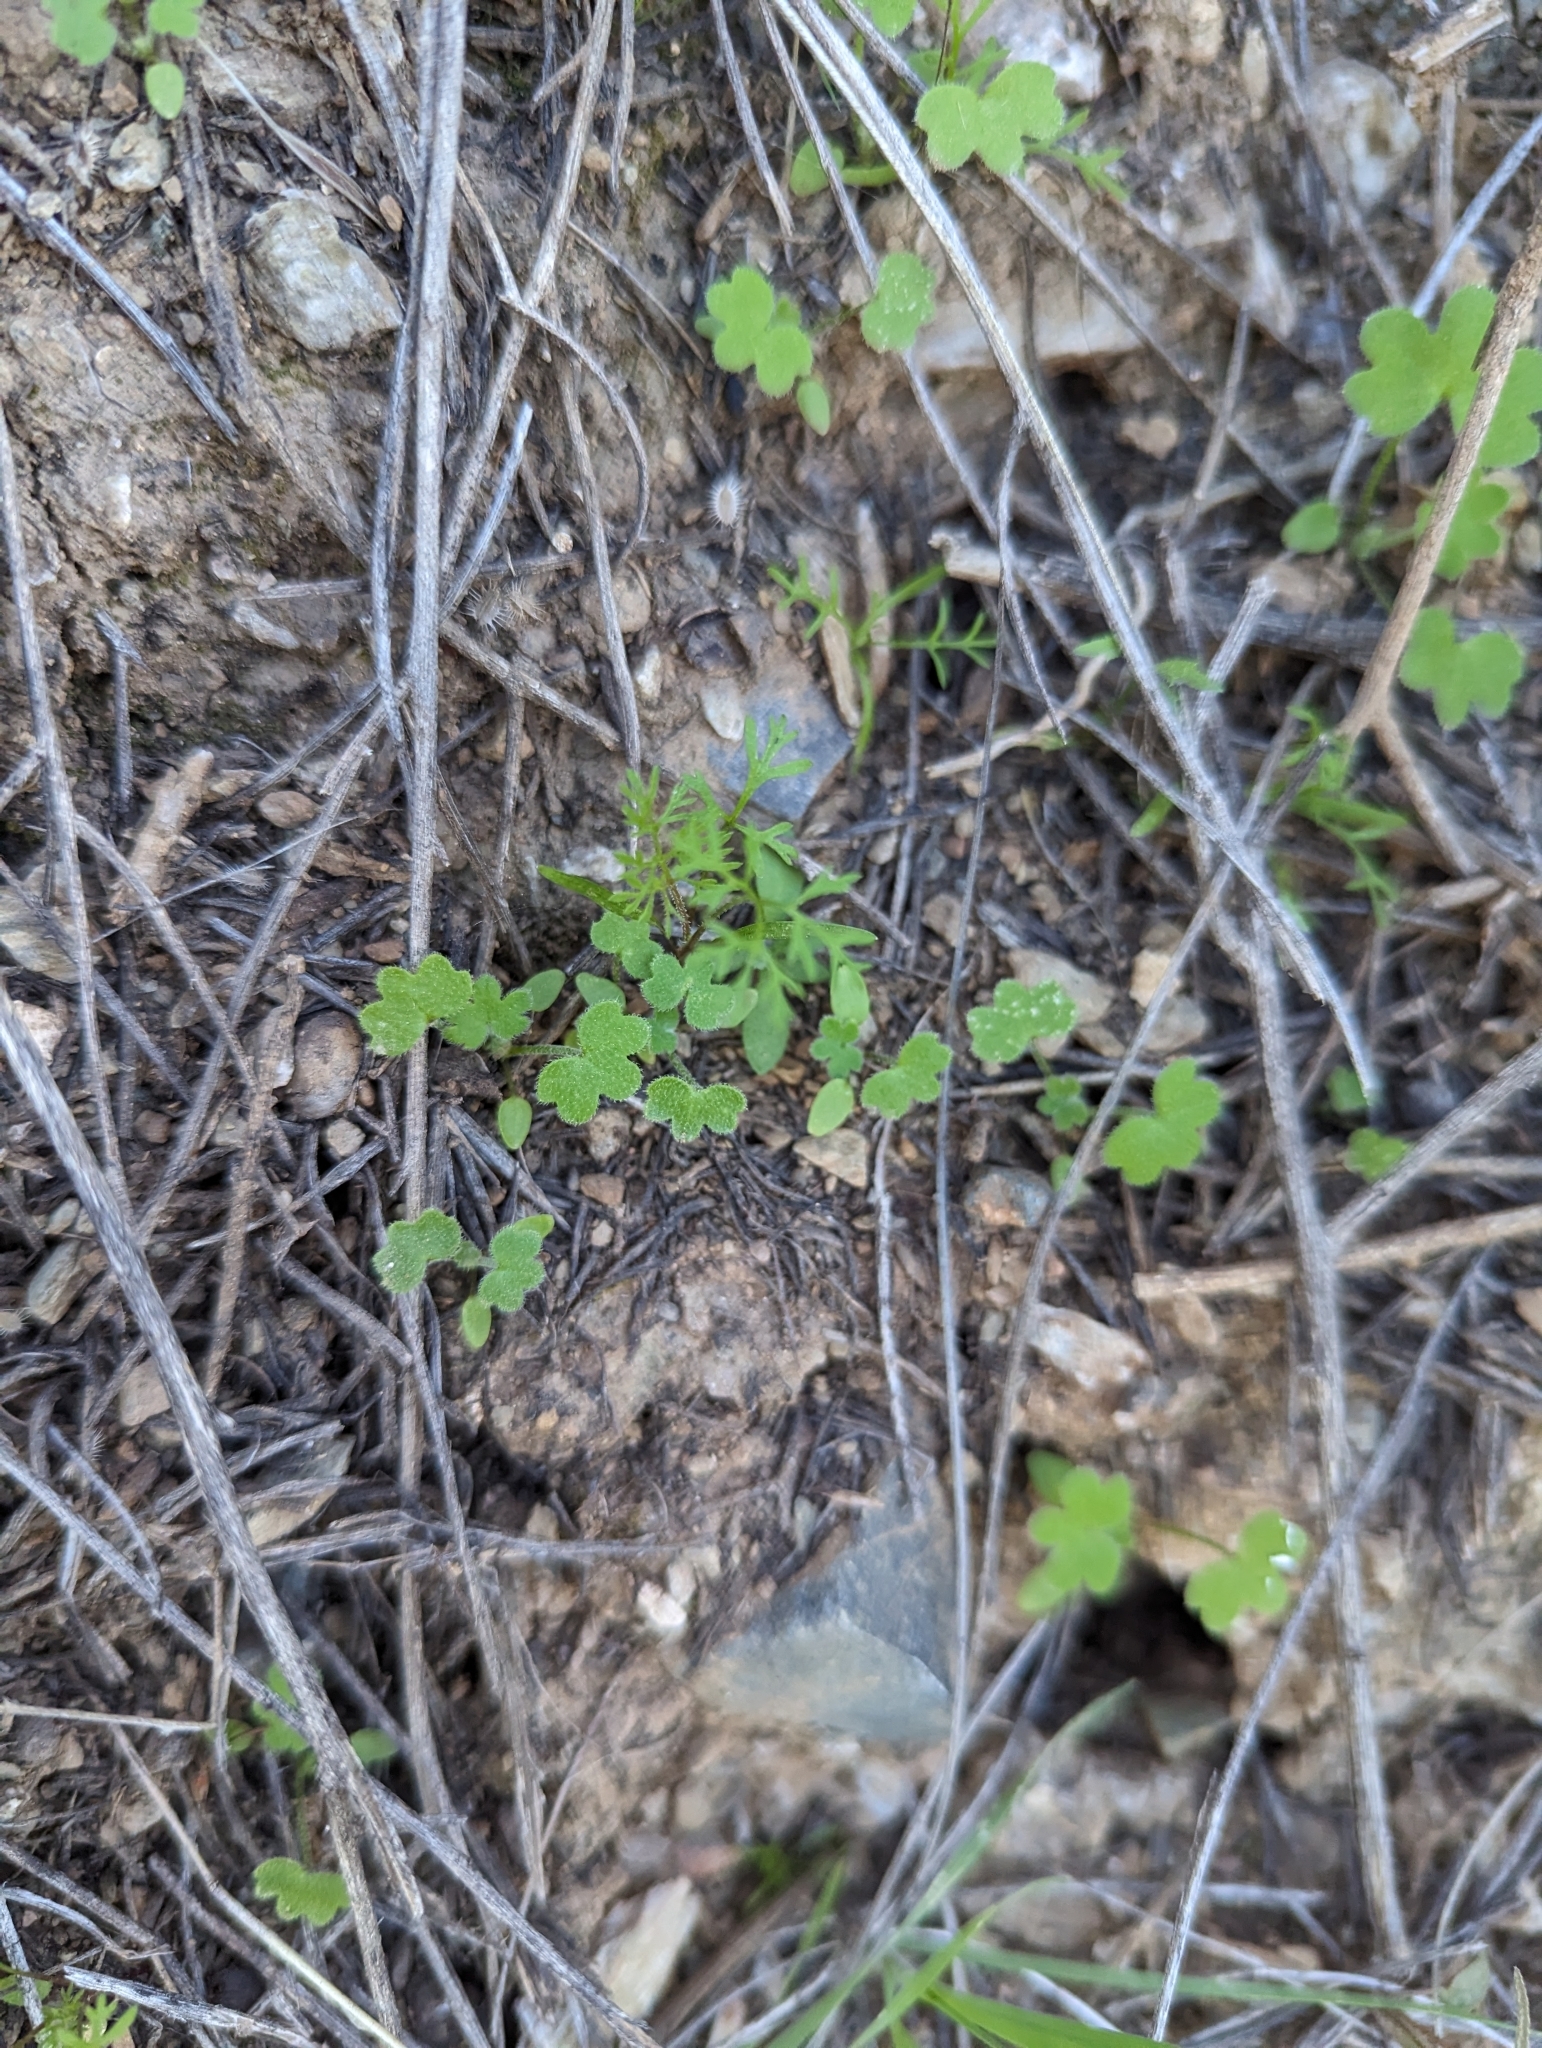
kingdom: Plantae
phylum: Tracheophyta
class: Magnoliopsida
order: Apiales
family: Apiaceae
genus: Bowlesia
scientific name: Bowlesia incana
